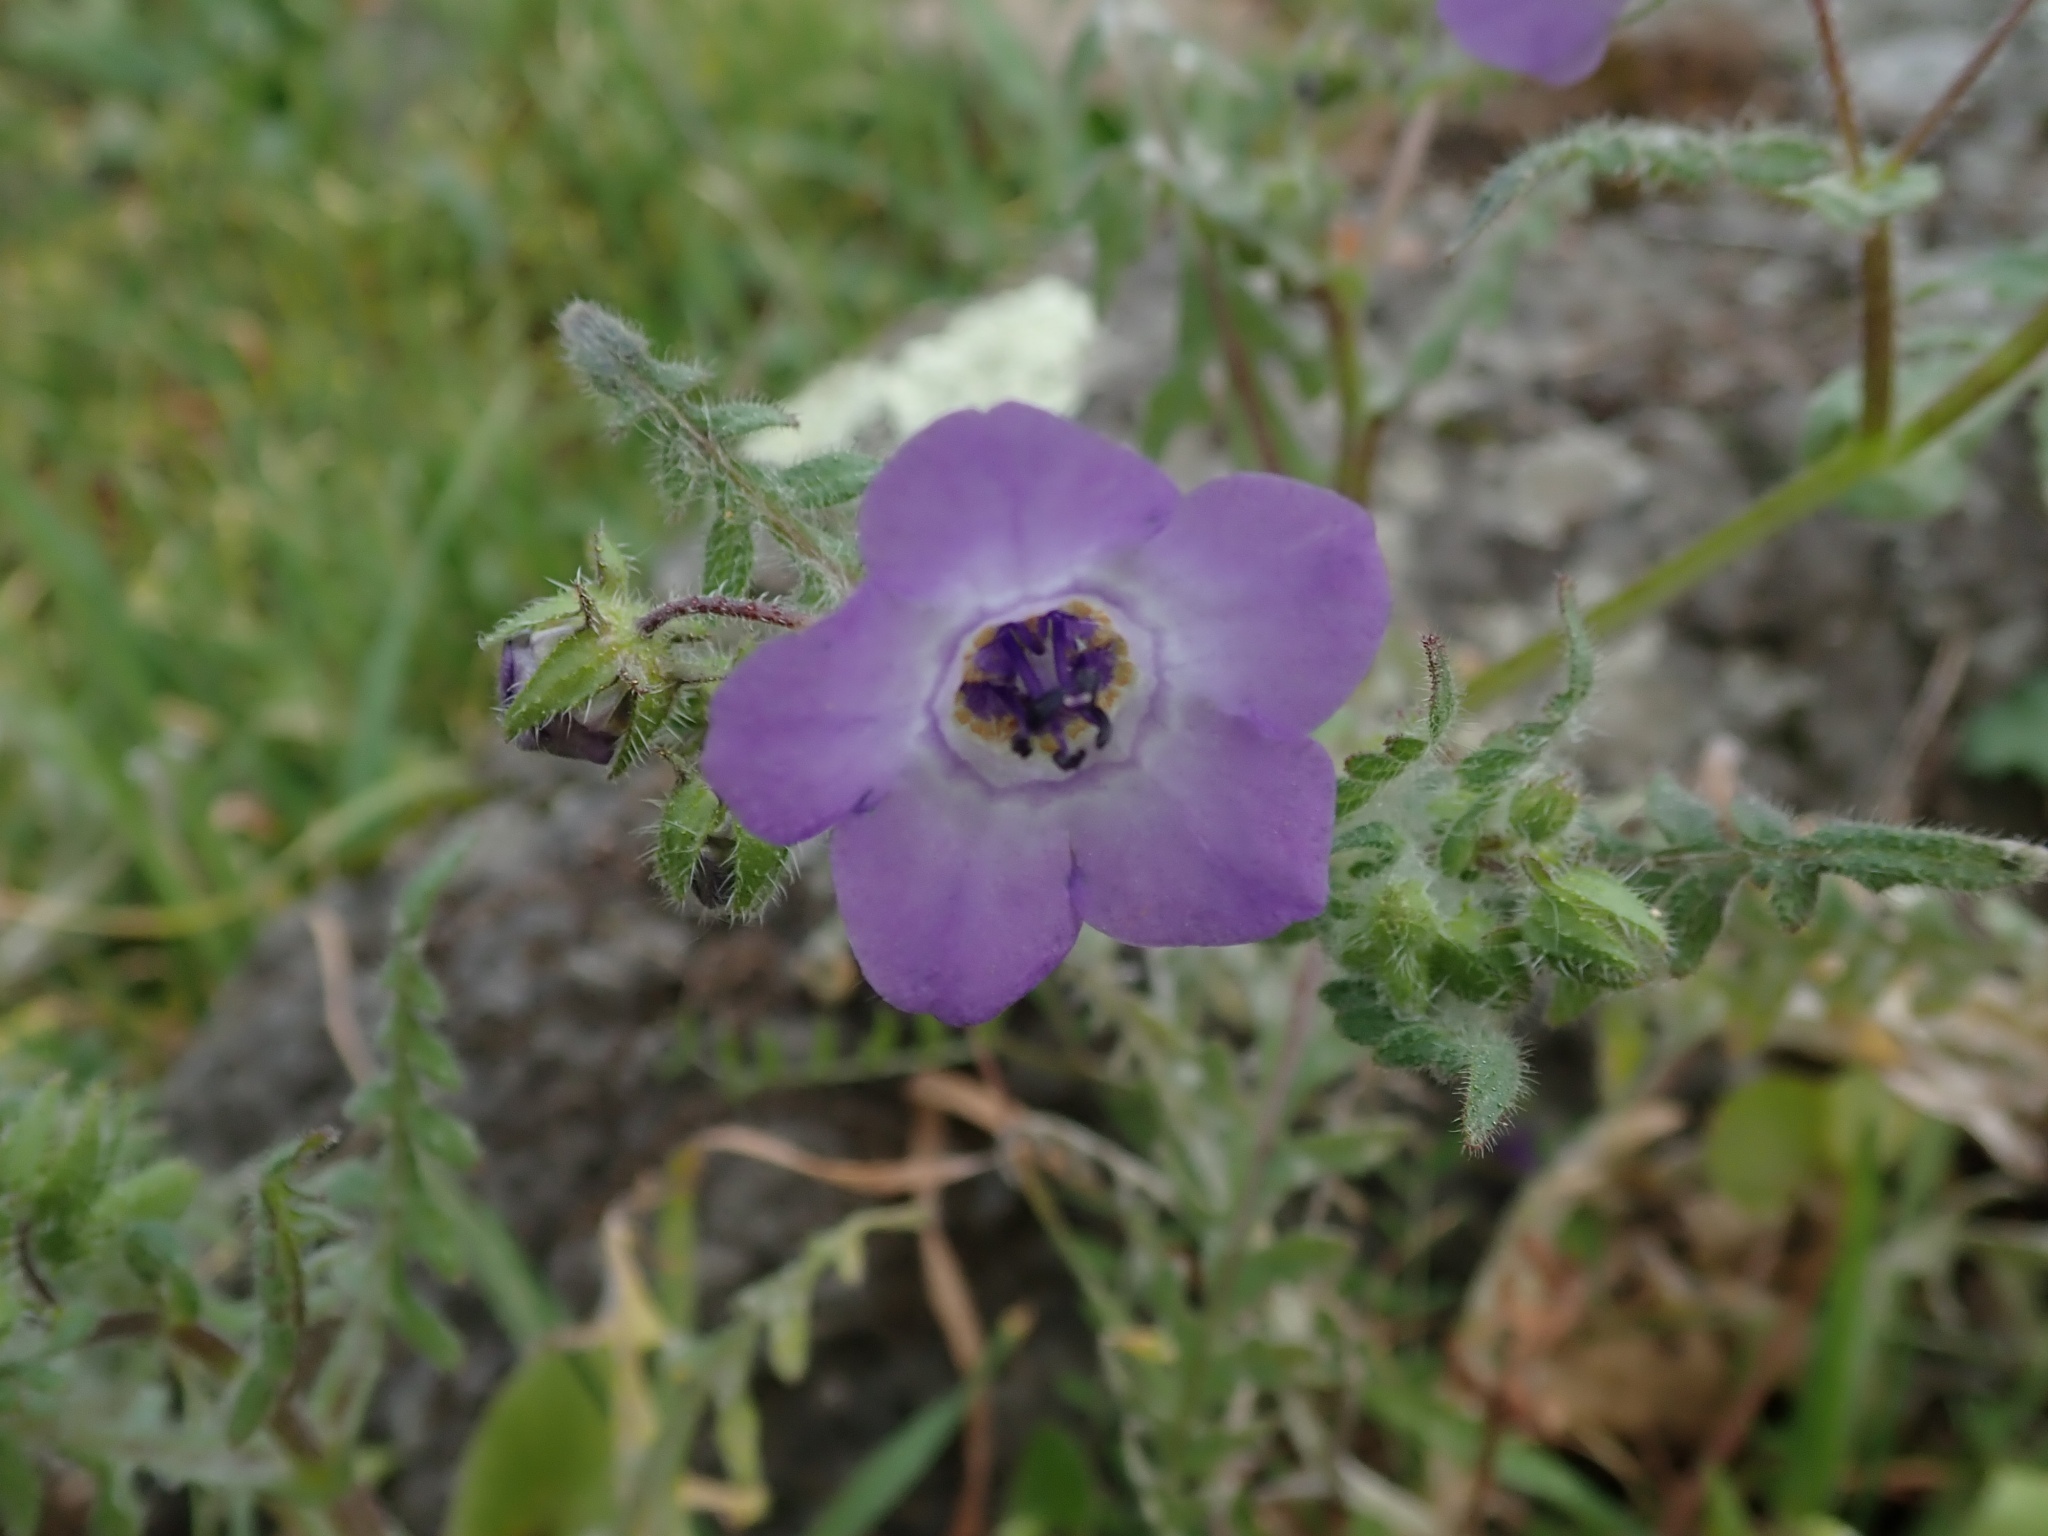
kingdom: Plantae
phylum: Tracheophyta
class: Magnoliopsida
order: Boraginales
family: Hydrophyllaceae
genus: Pholistoma
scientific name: Pholistoma auritum
